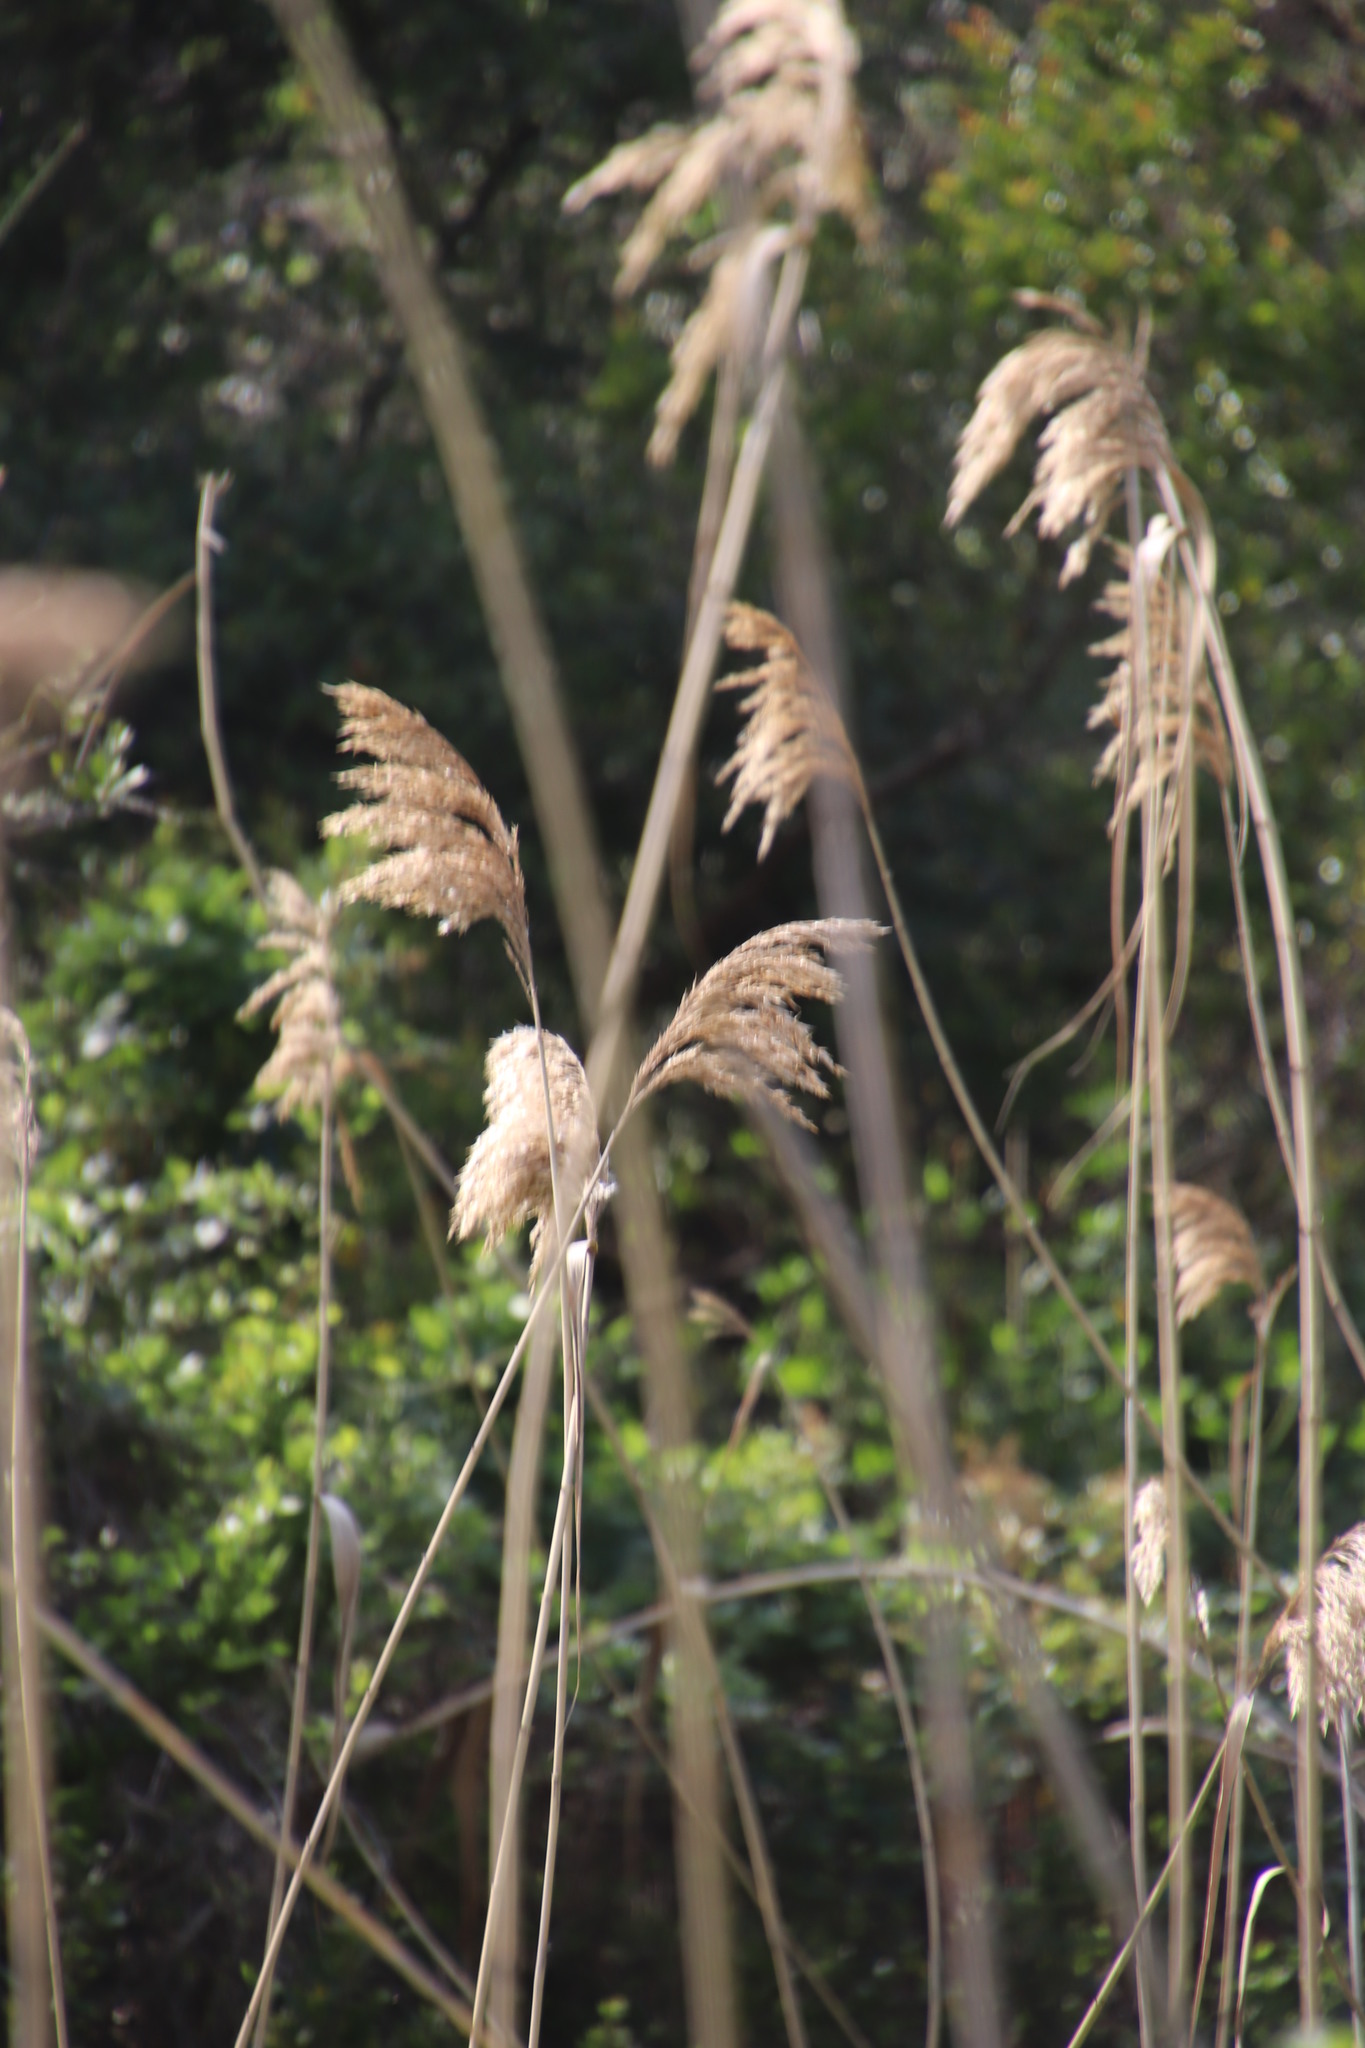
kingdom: Plantae
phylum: Tracheophyta
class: Liliopsida
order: Poales
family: Poaceae
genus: Phragmites
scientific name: Phragmites australis
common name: Common reed
